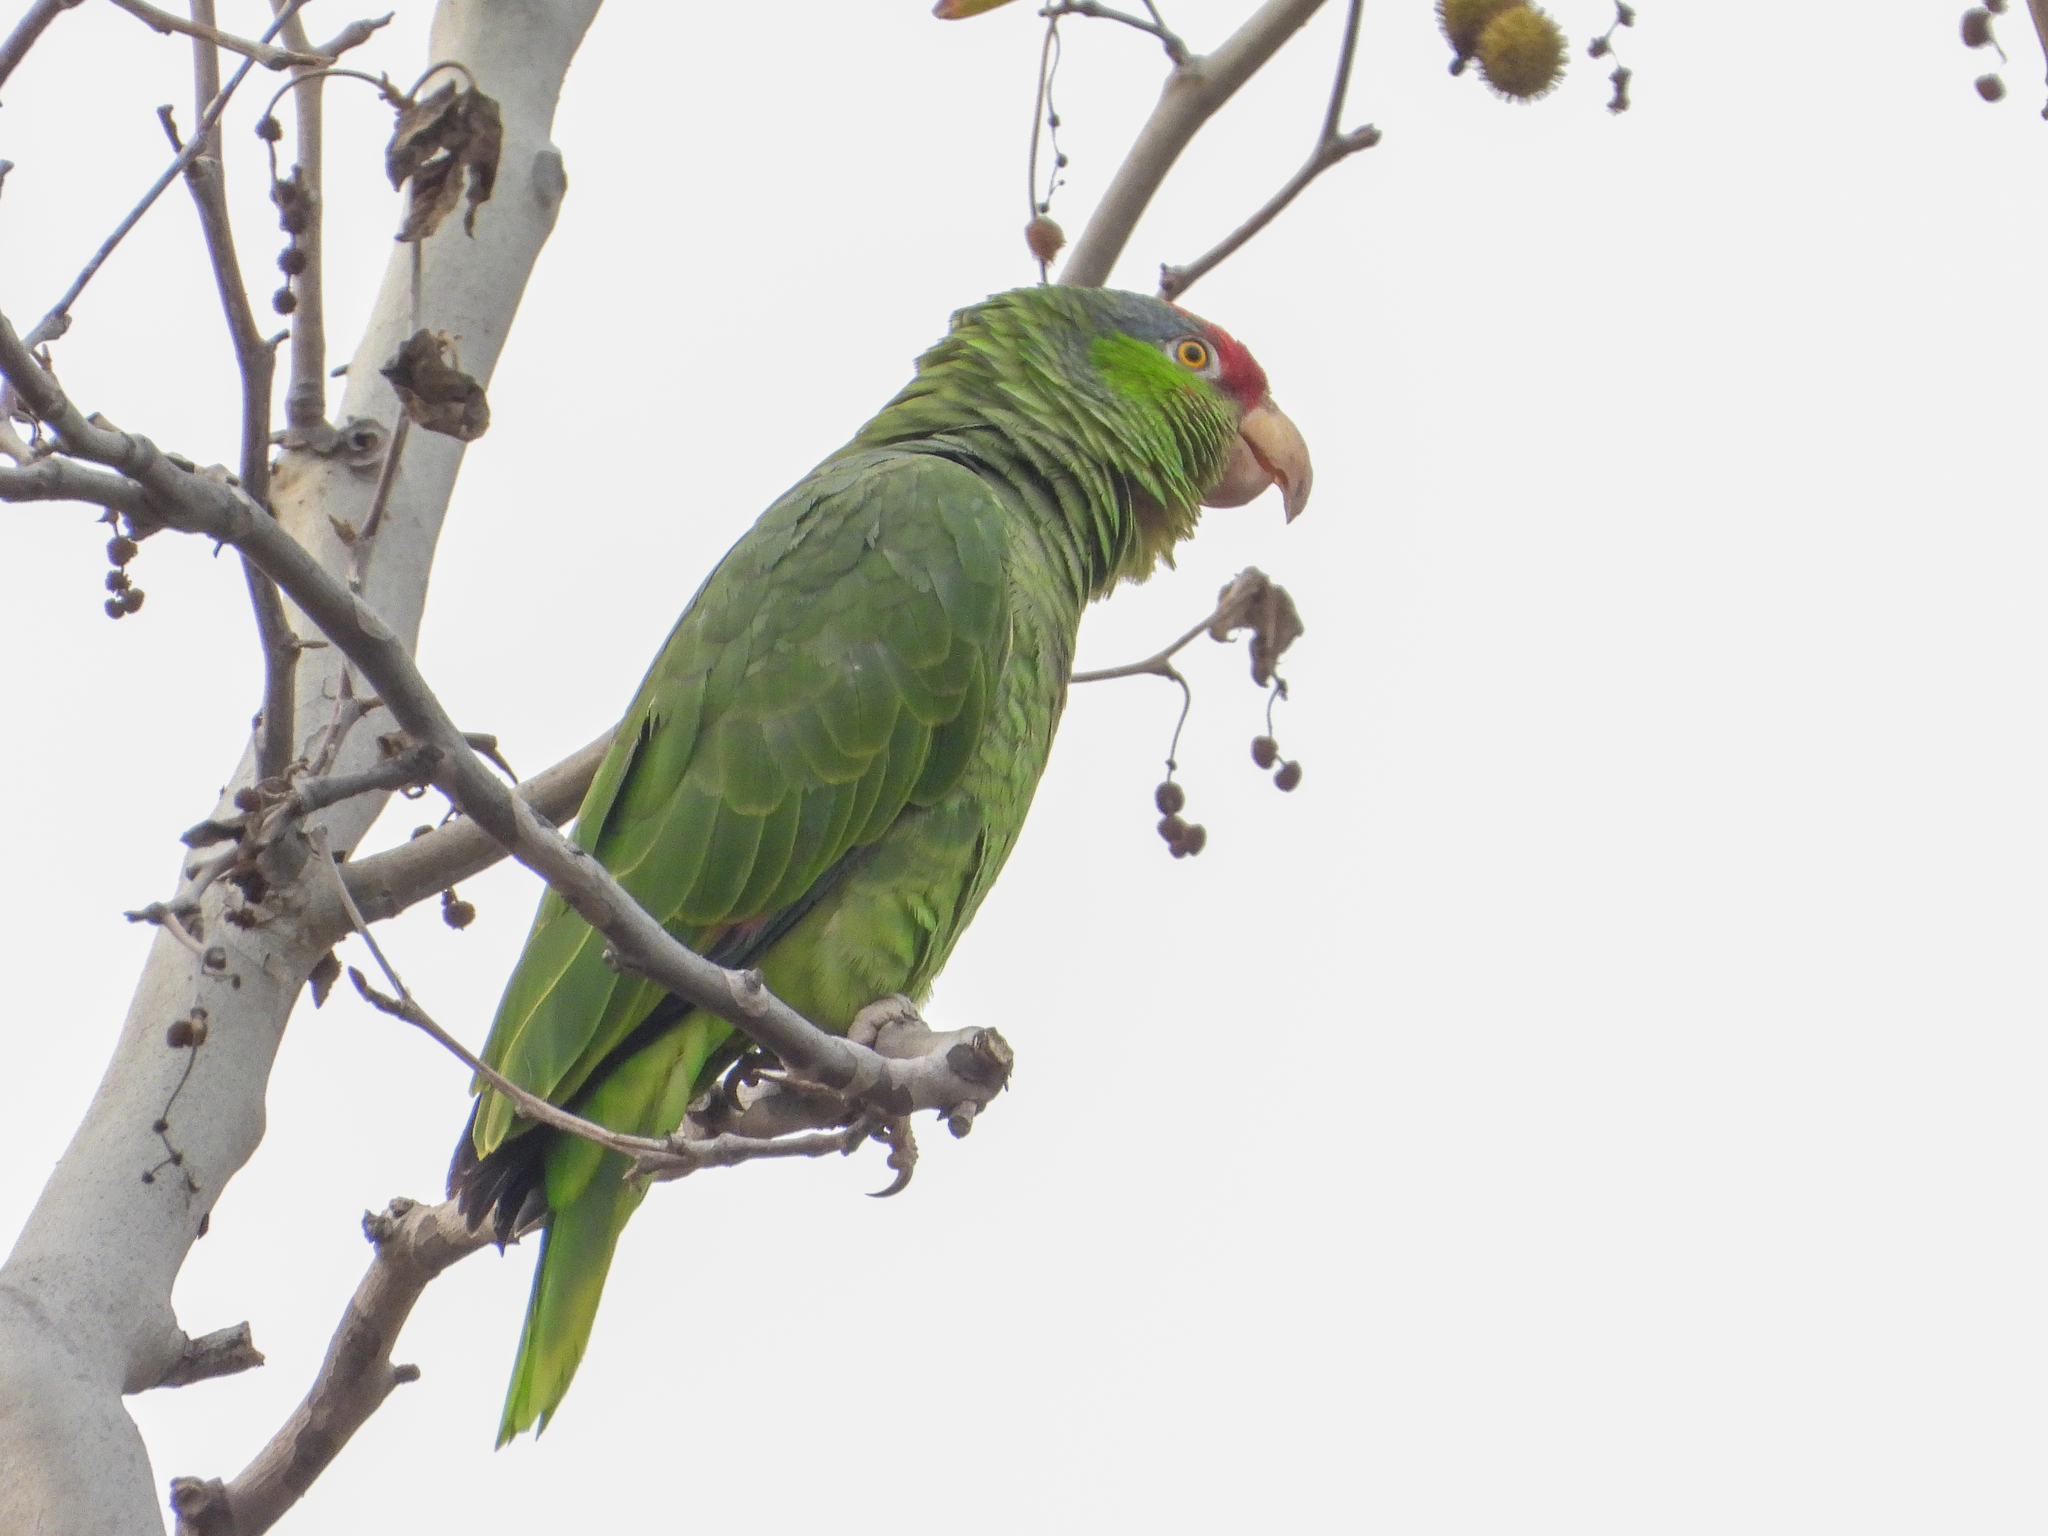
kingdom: Animalia
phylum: Chordata
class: Aves
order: Psittaciformes
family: Psittacidae
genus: Amazona
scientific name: Amazona viridigenalis
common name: Red-crowned amazon
